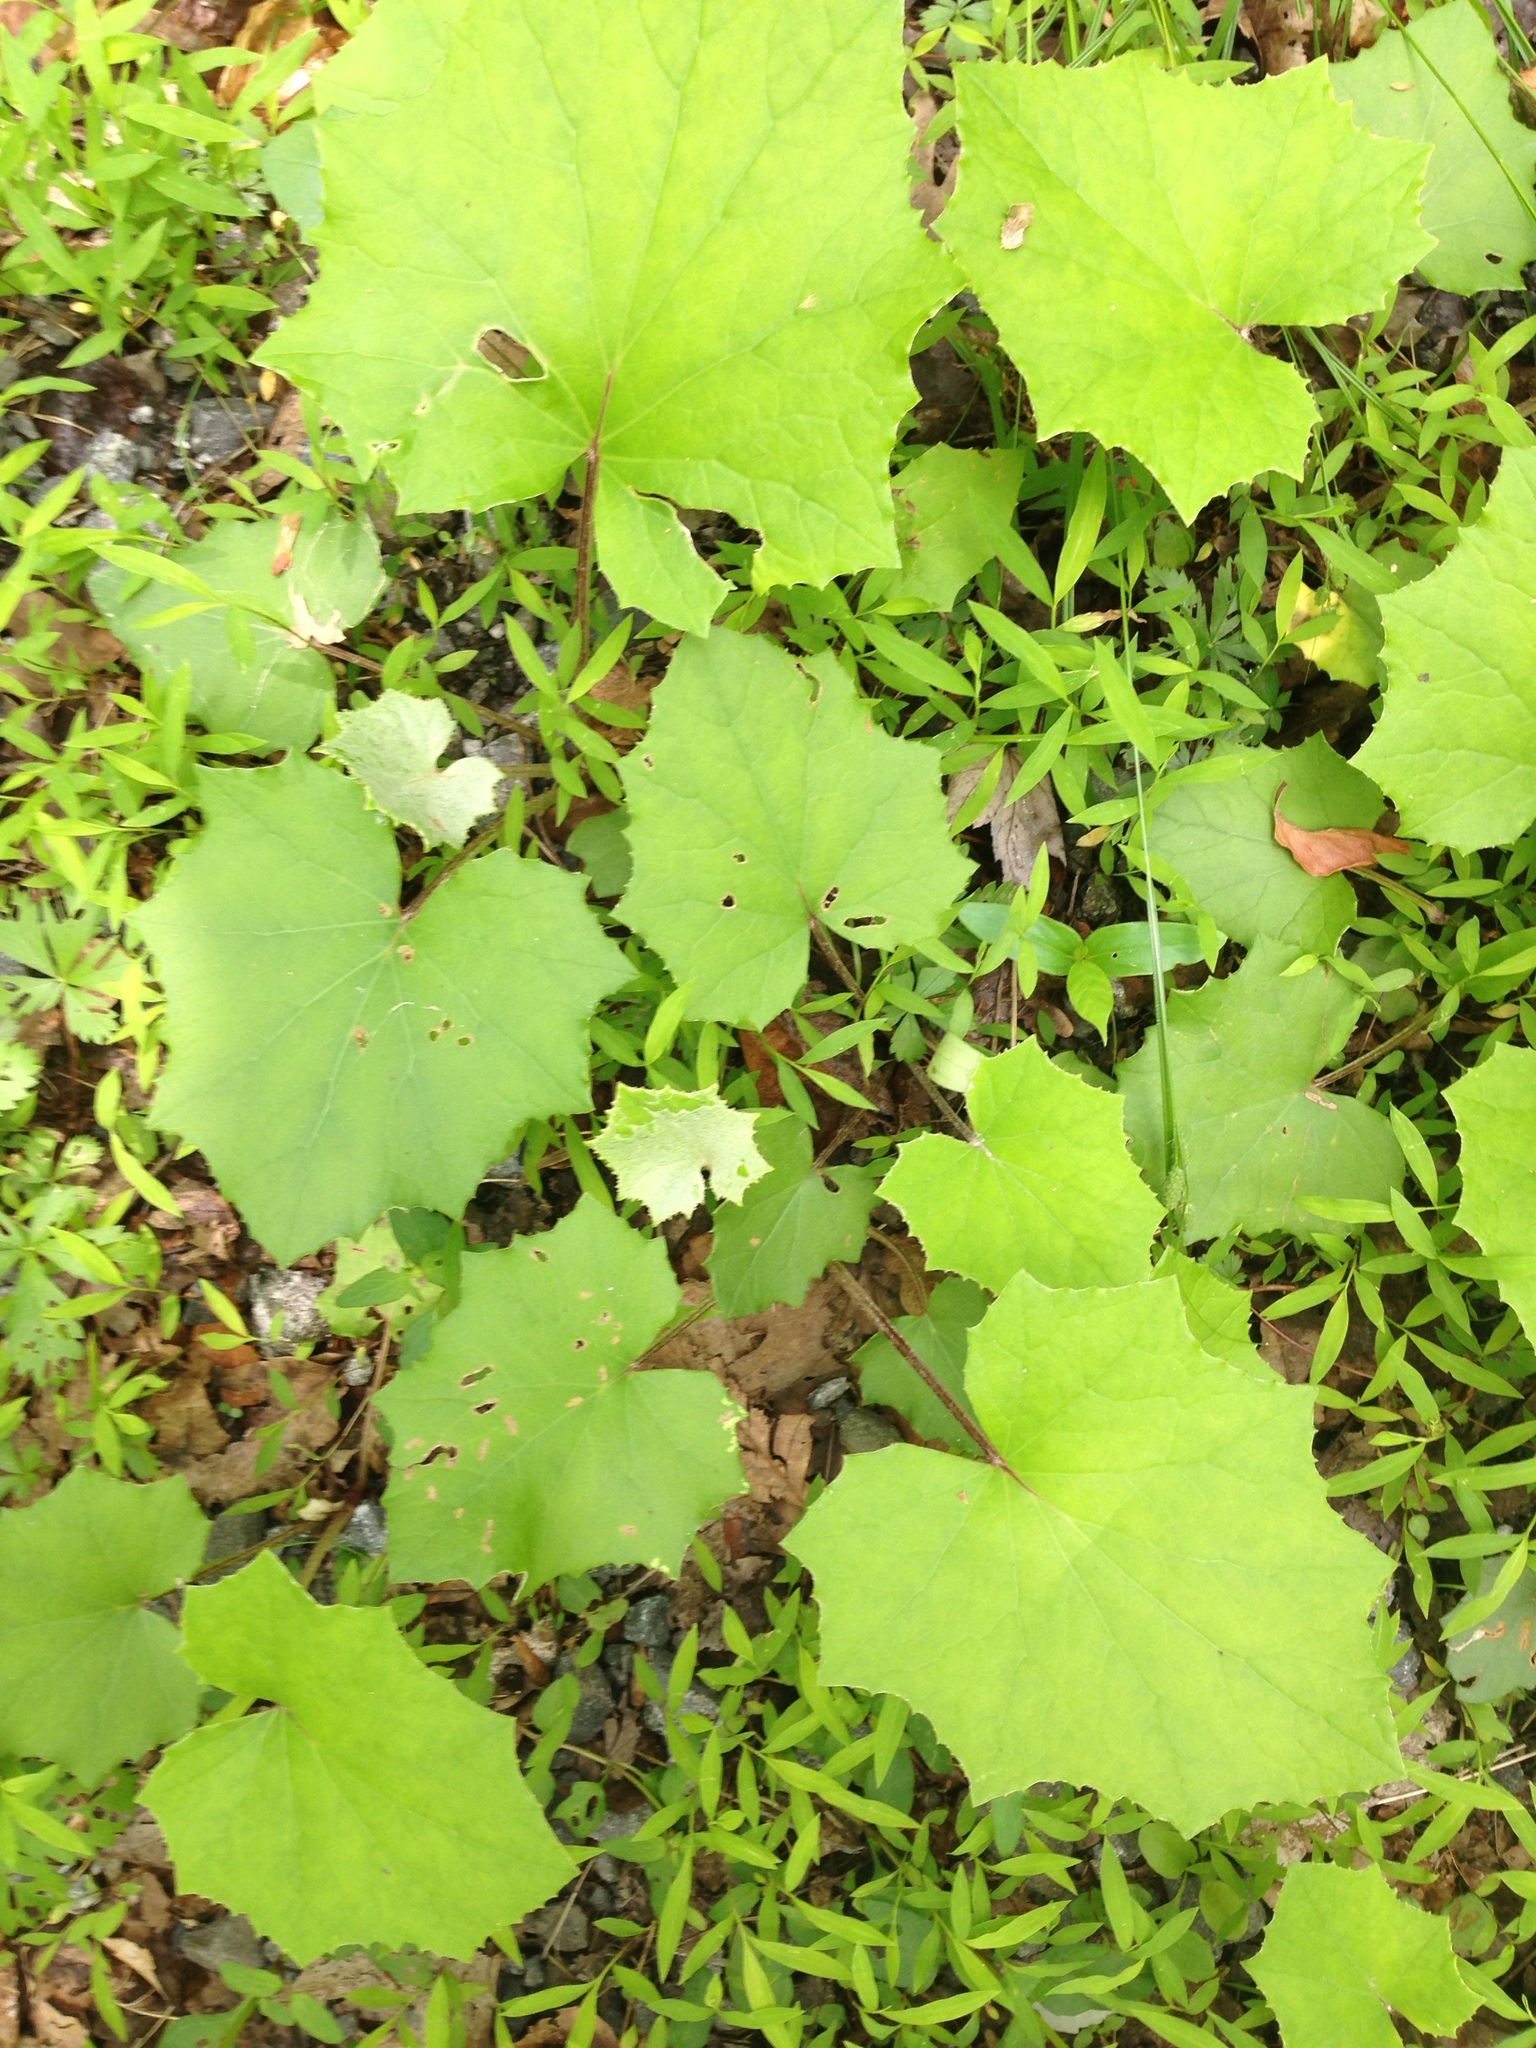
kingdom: Plantae
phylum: Tracheophyta
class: Magnoliopsida
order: Asterales
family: Asteraceae
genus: Tussilago
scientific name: Tussilago farfara
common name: Coltsfoot
